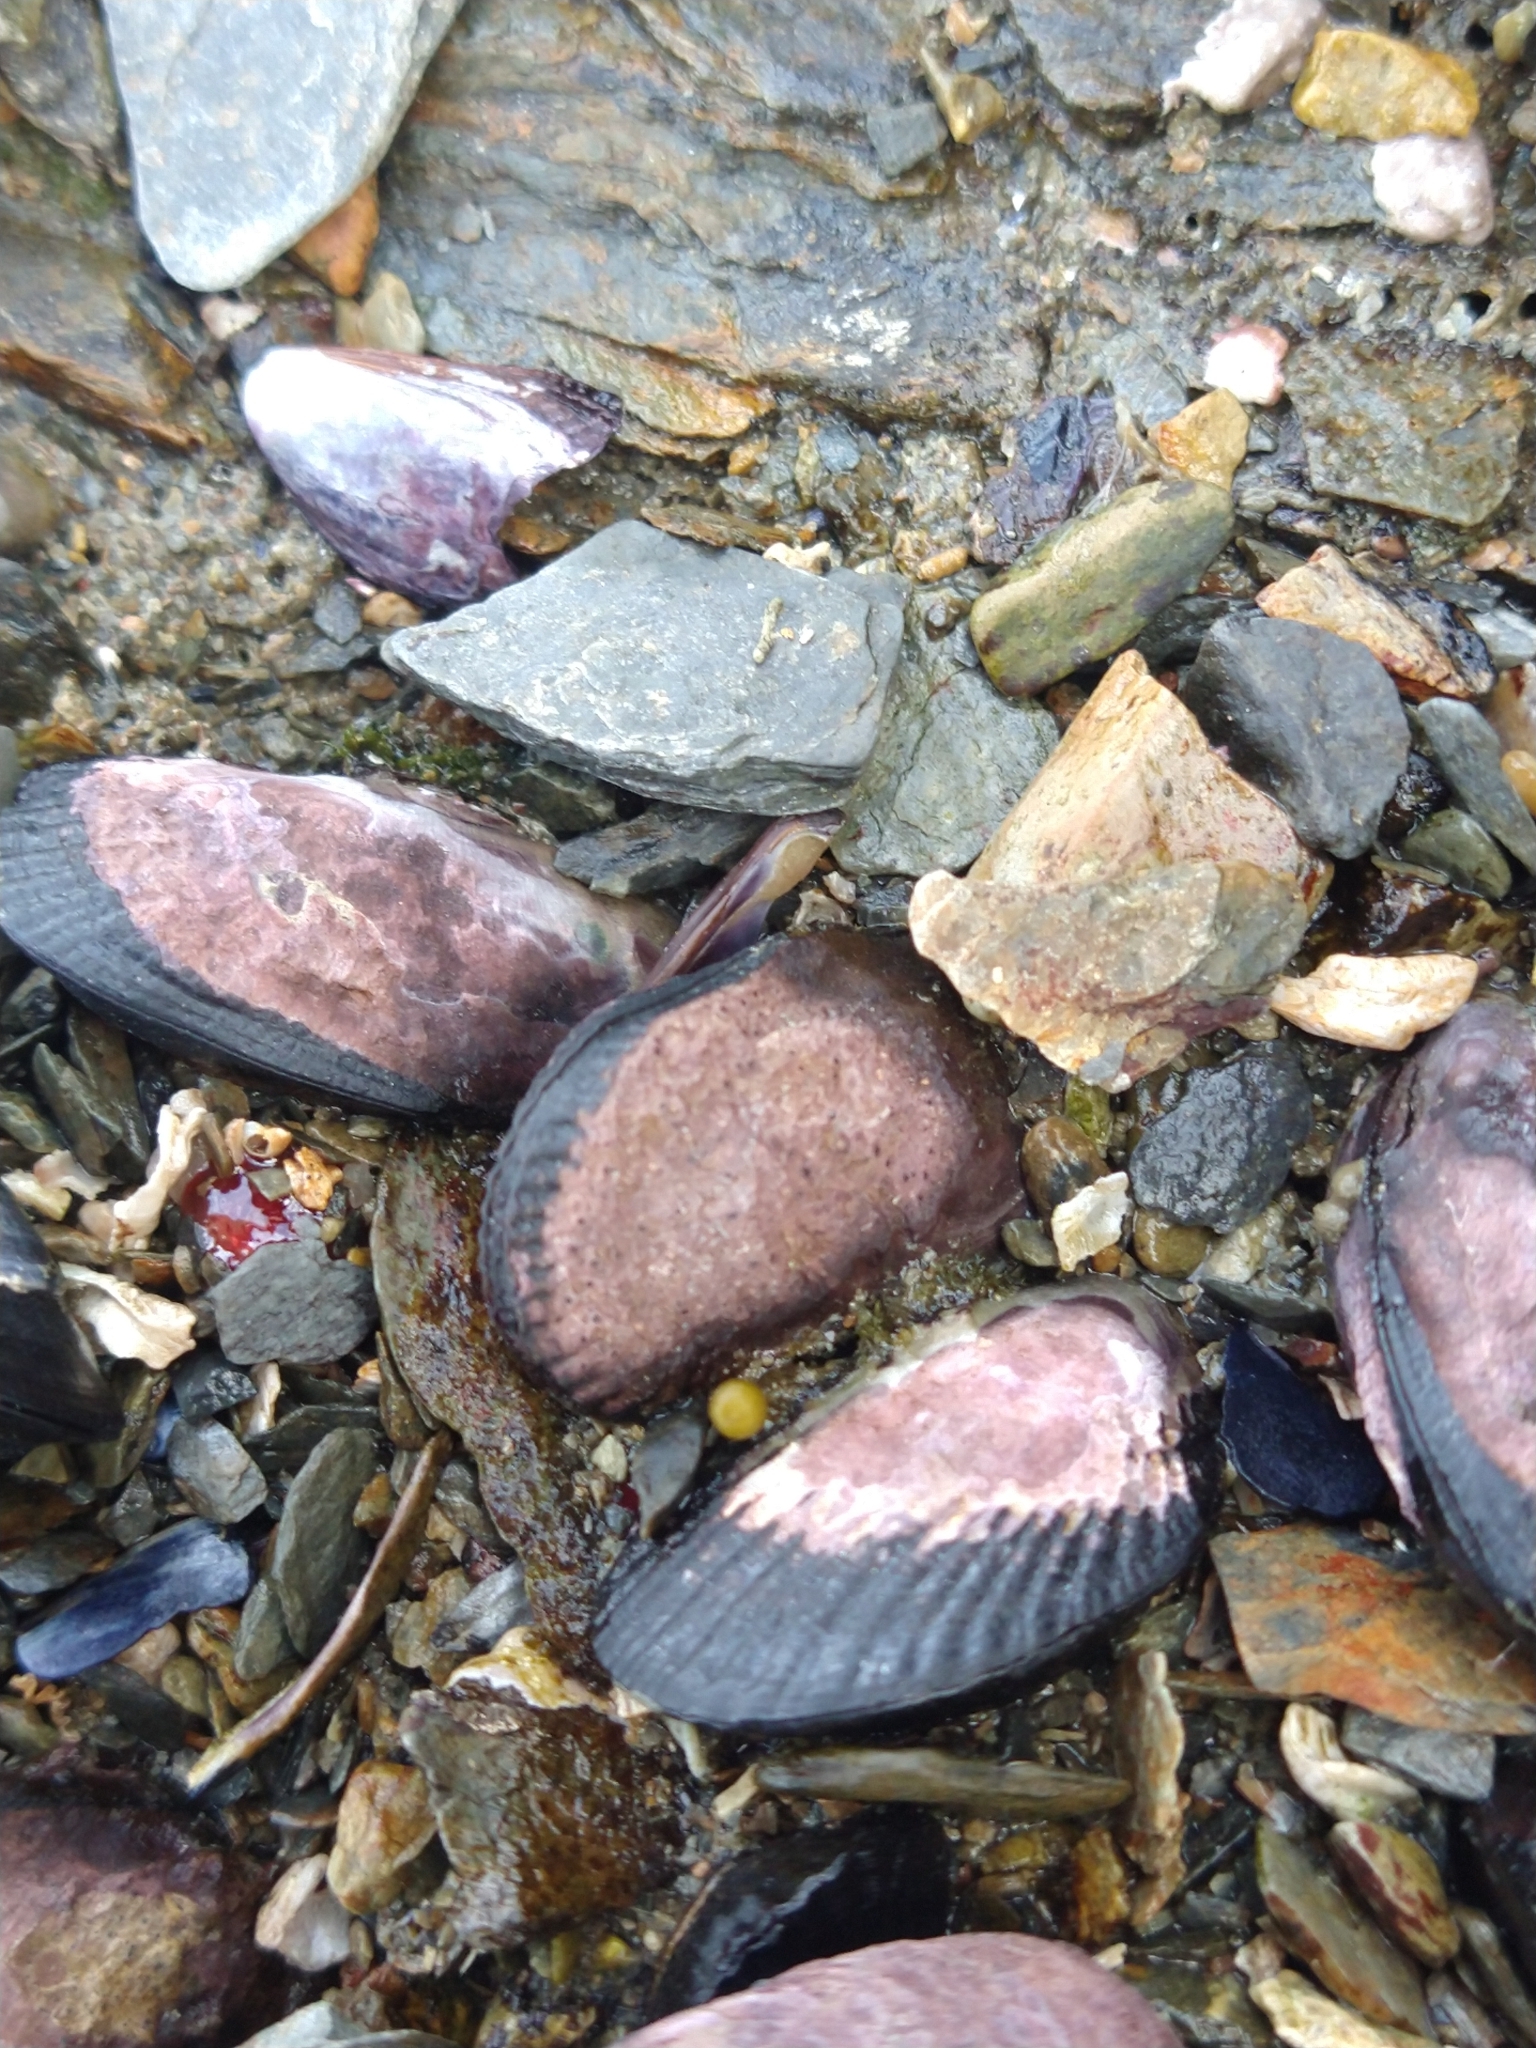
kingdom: Animalia
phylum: Mollusca
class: Bivalvia
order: Mytilida
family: Mytilidae
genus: Perumytilus
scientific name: Perumytilus purpuratus
